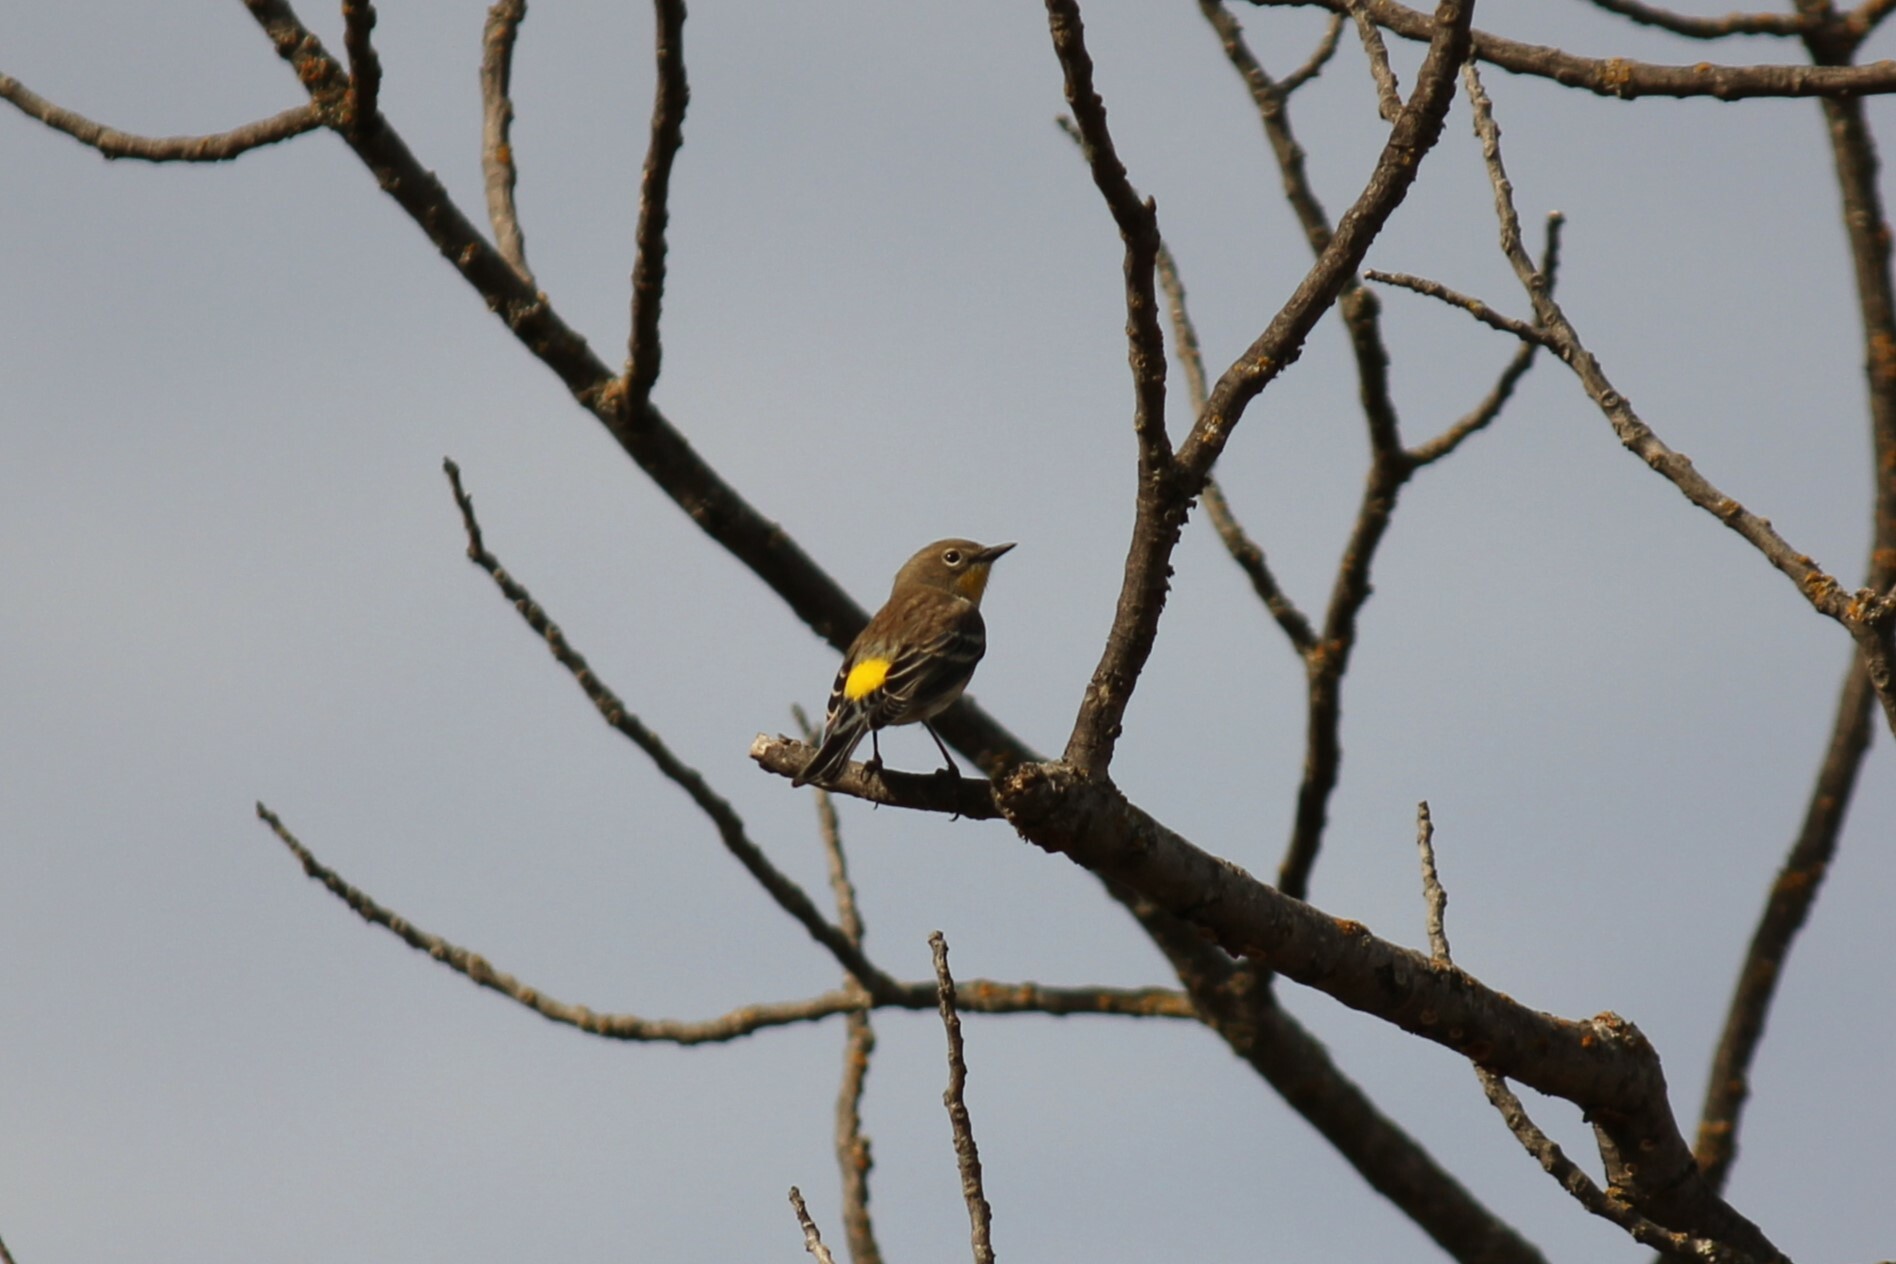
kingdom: Animalia
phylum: Chordata
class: Aves
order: Passeriformes
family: Parulidae
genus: Setophaga
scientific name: Setophaga coronata
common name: Myrtle warbler
